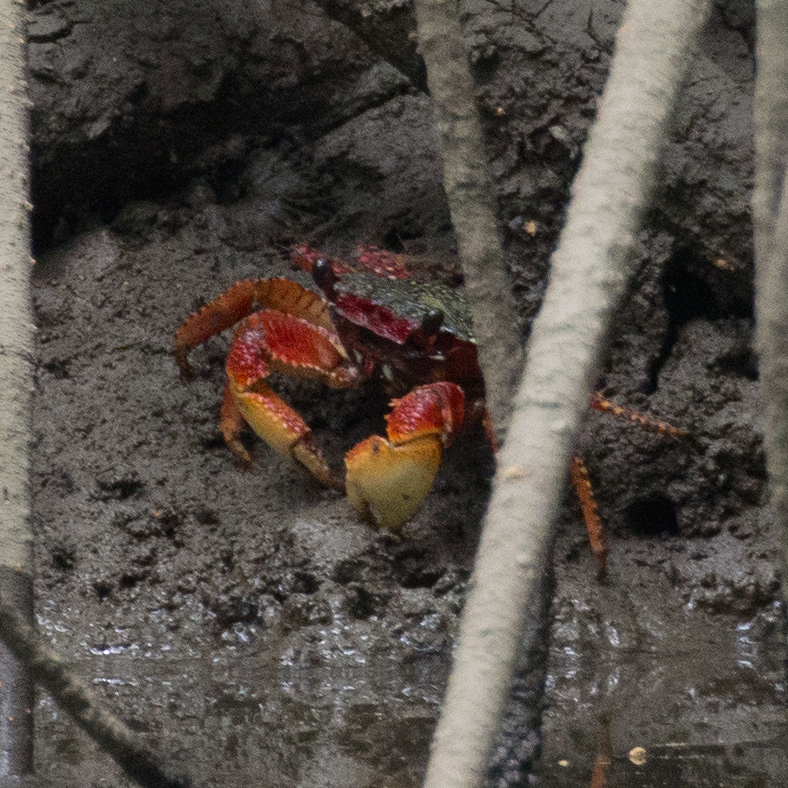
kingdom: Animalia
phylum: Arthropoda
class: Malacostraca
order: Decapoda
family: Grapsidae
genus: Goniopsis
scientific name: Goniopsis pulchra
